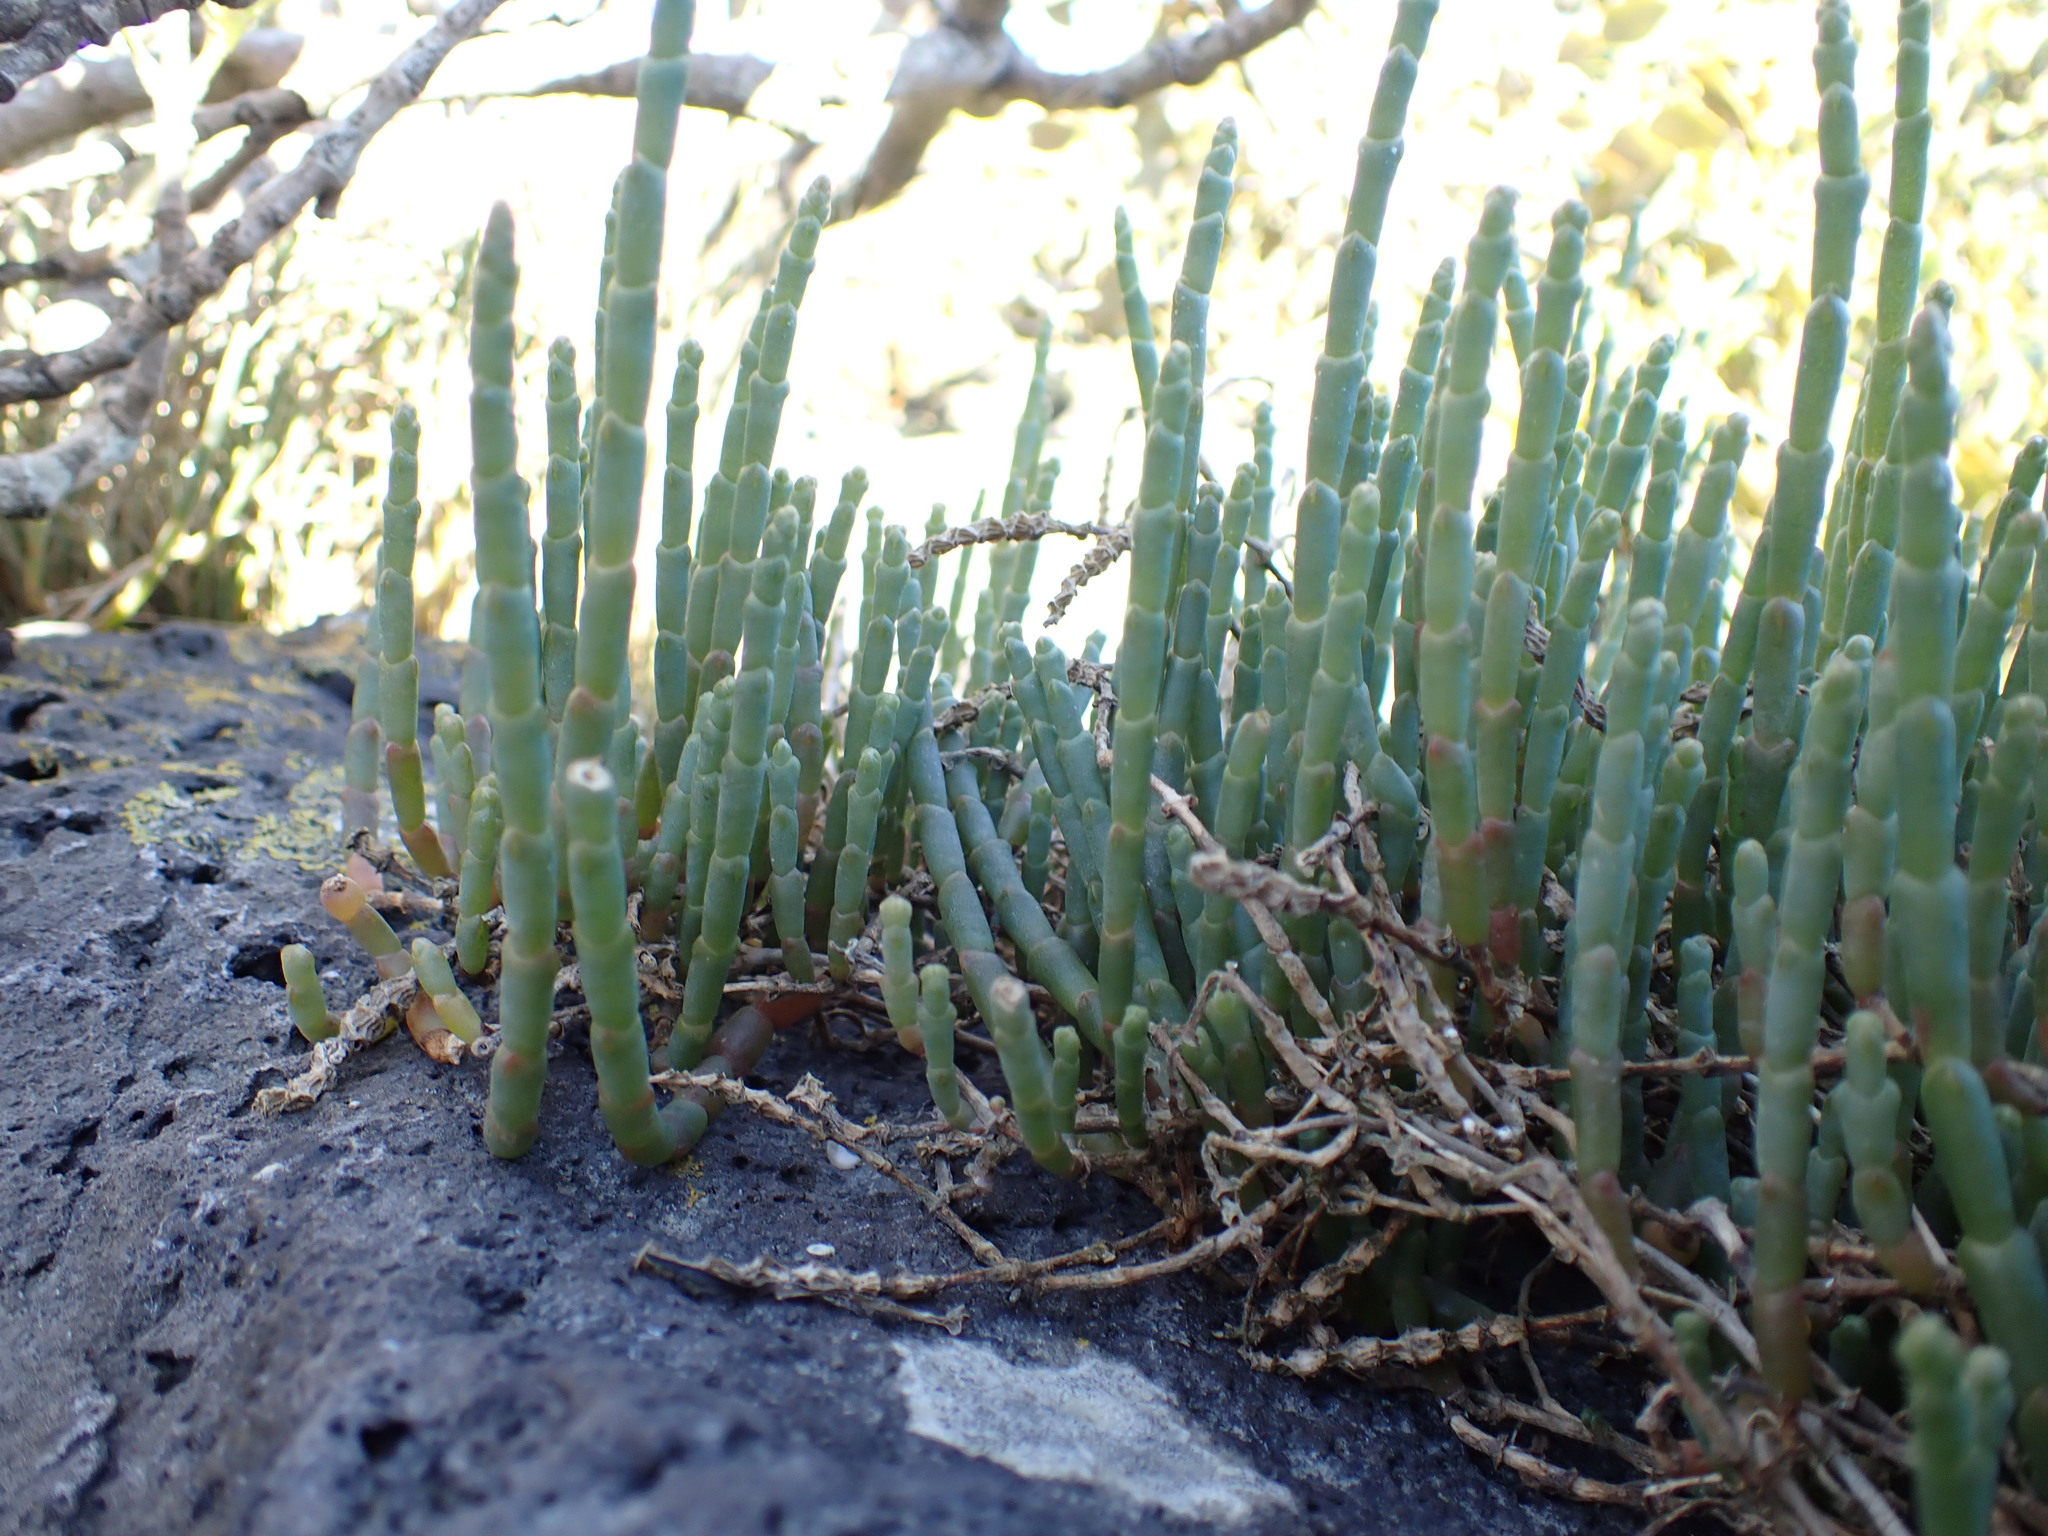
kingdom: Plantae
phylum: Tracheophyta
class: Magnoliopsida
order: Caryophyllales
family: Amaranthaceae
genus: Salicornia
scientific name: Salicornia quinqueflora
